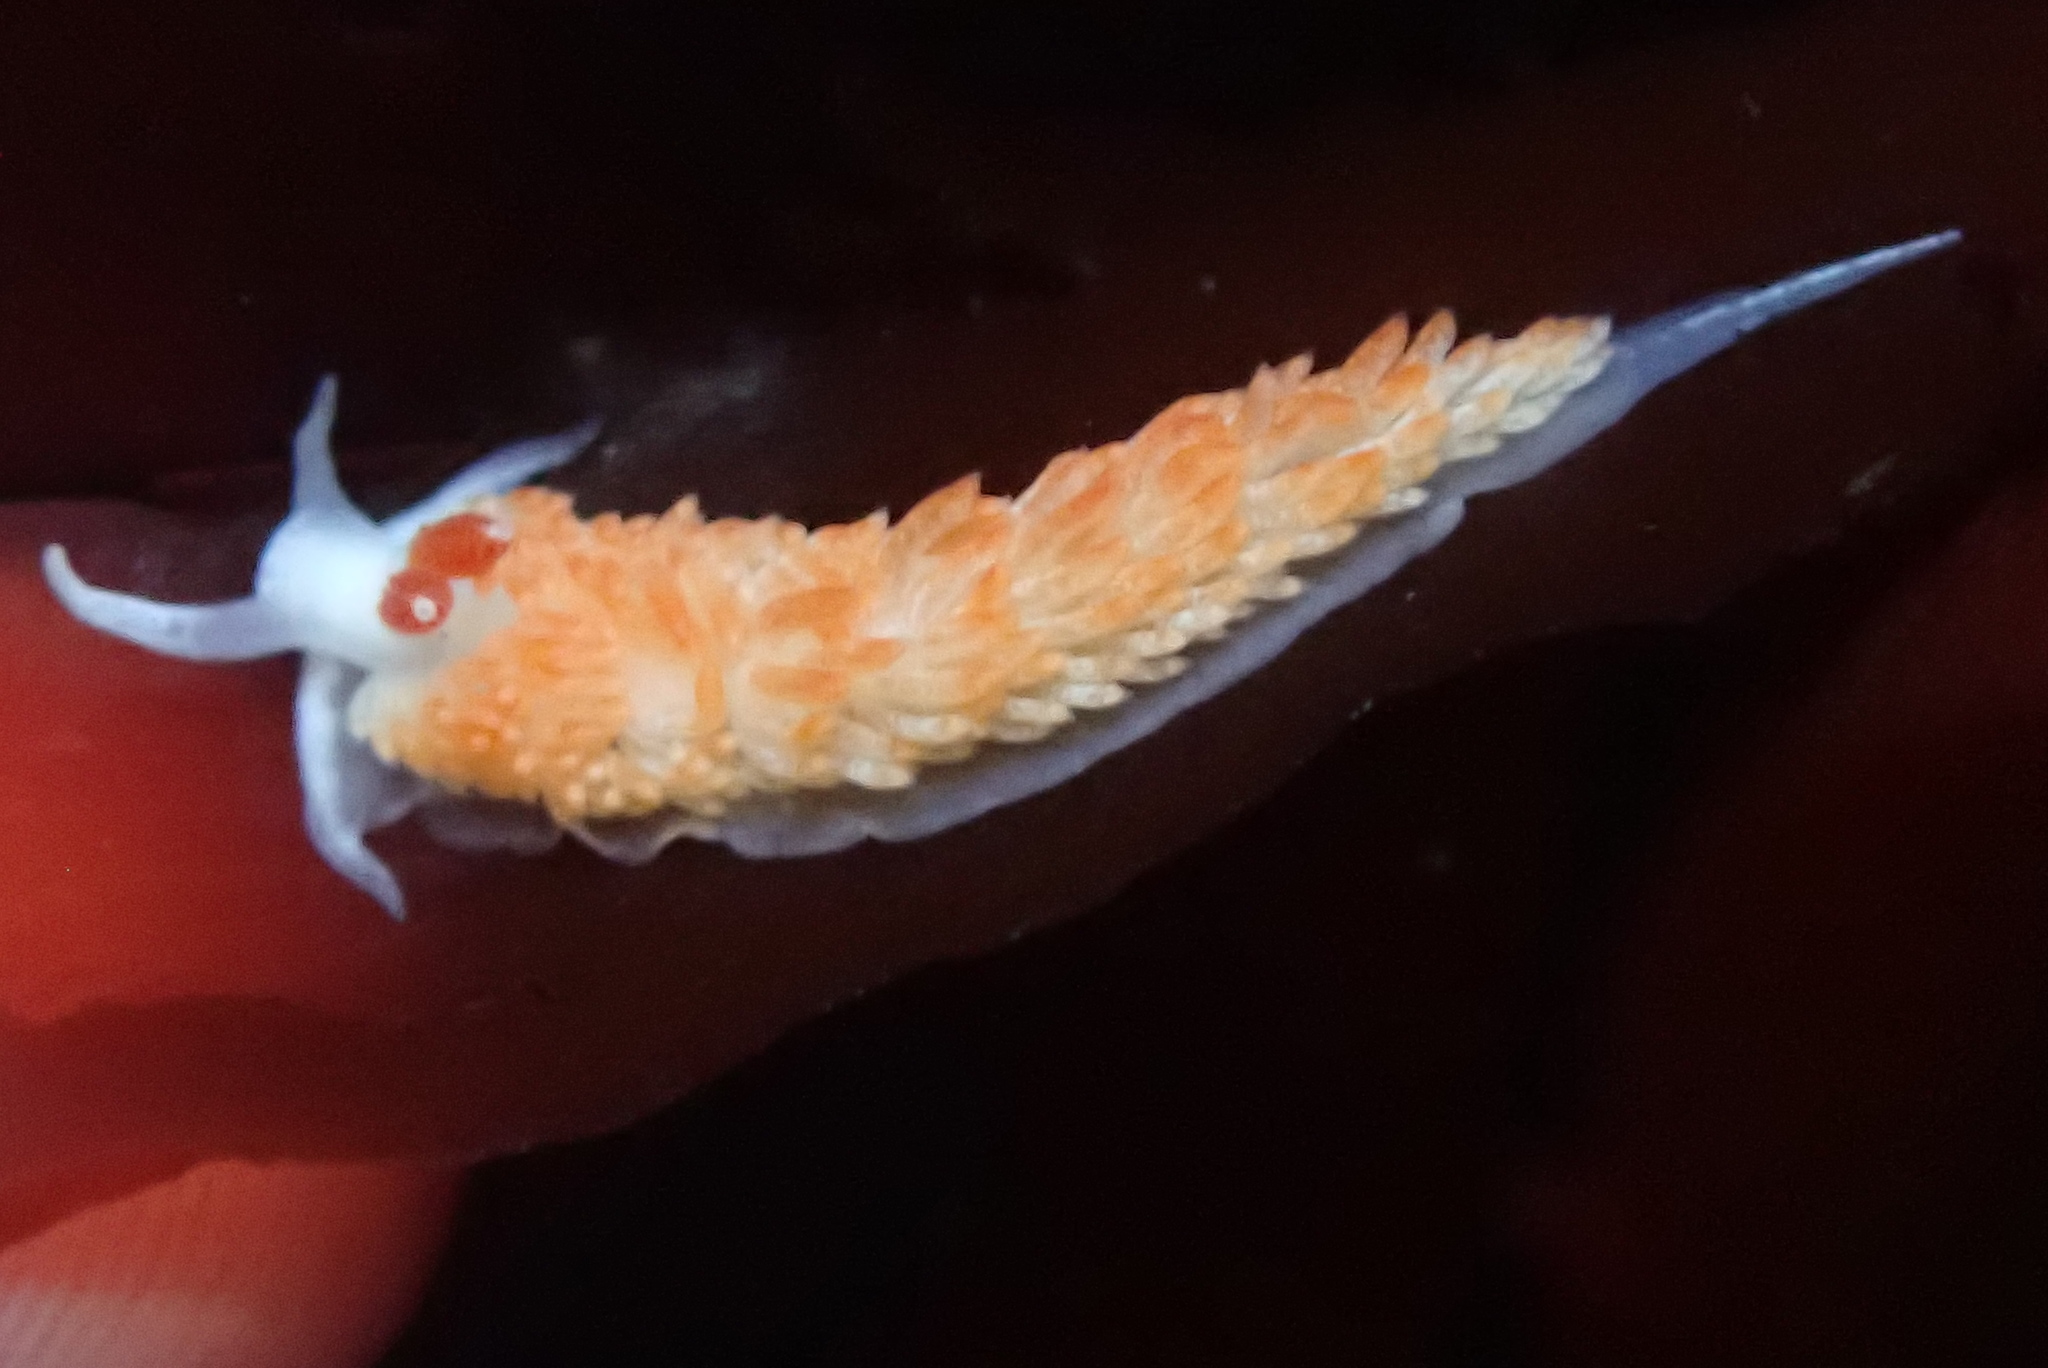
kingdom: Animalia
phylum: Mollusca
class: Gastropoda
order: Nudibranchia
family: Aeolidiidae
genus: Anteaeolidiella
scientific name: Anteaeolidiella oliviae
